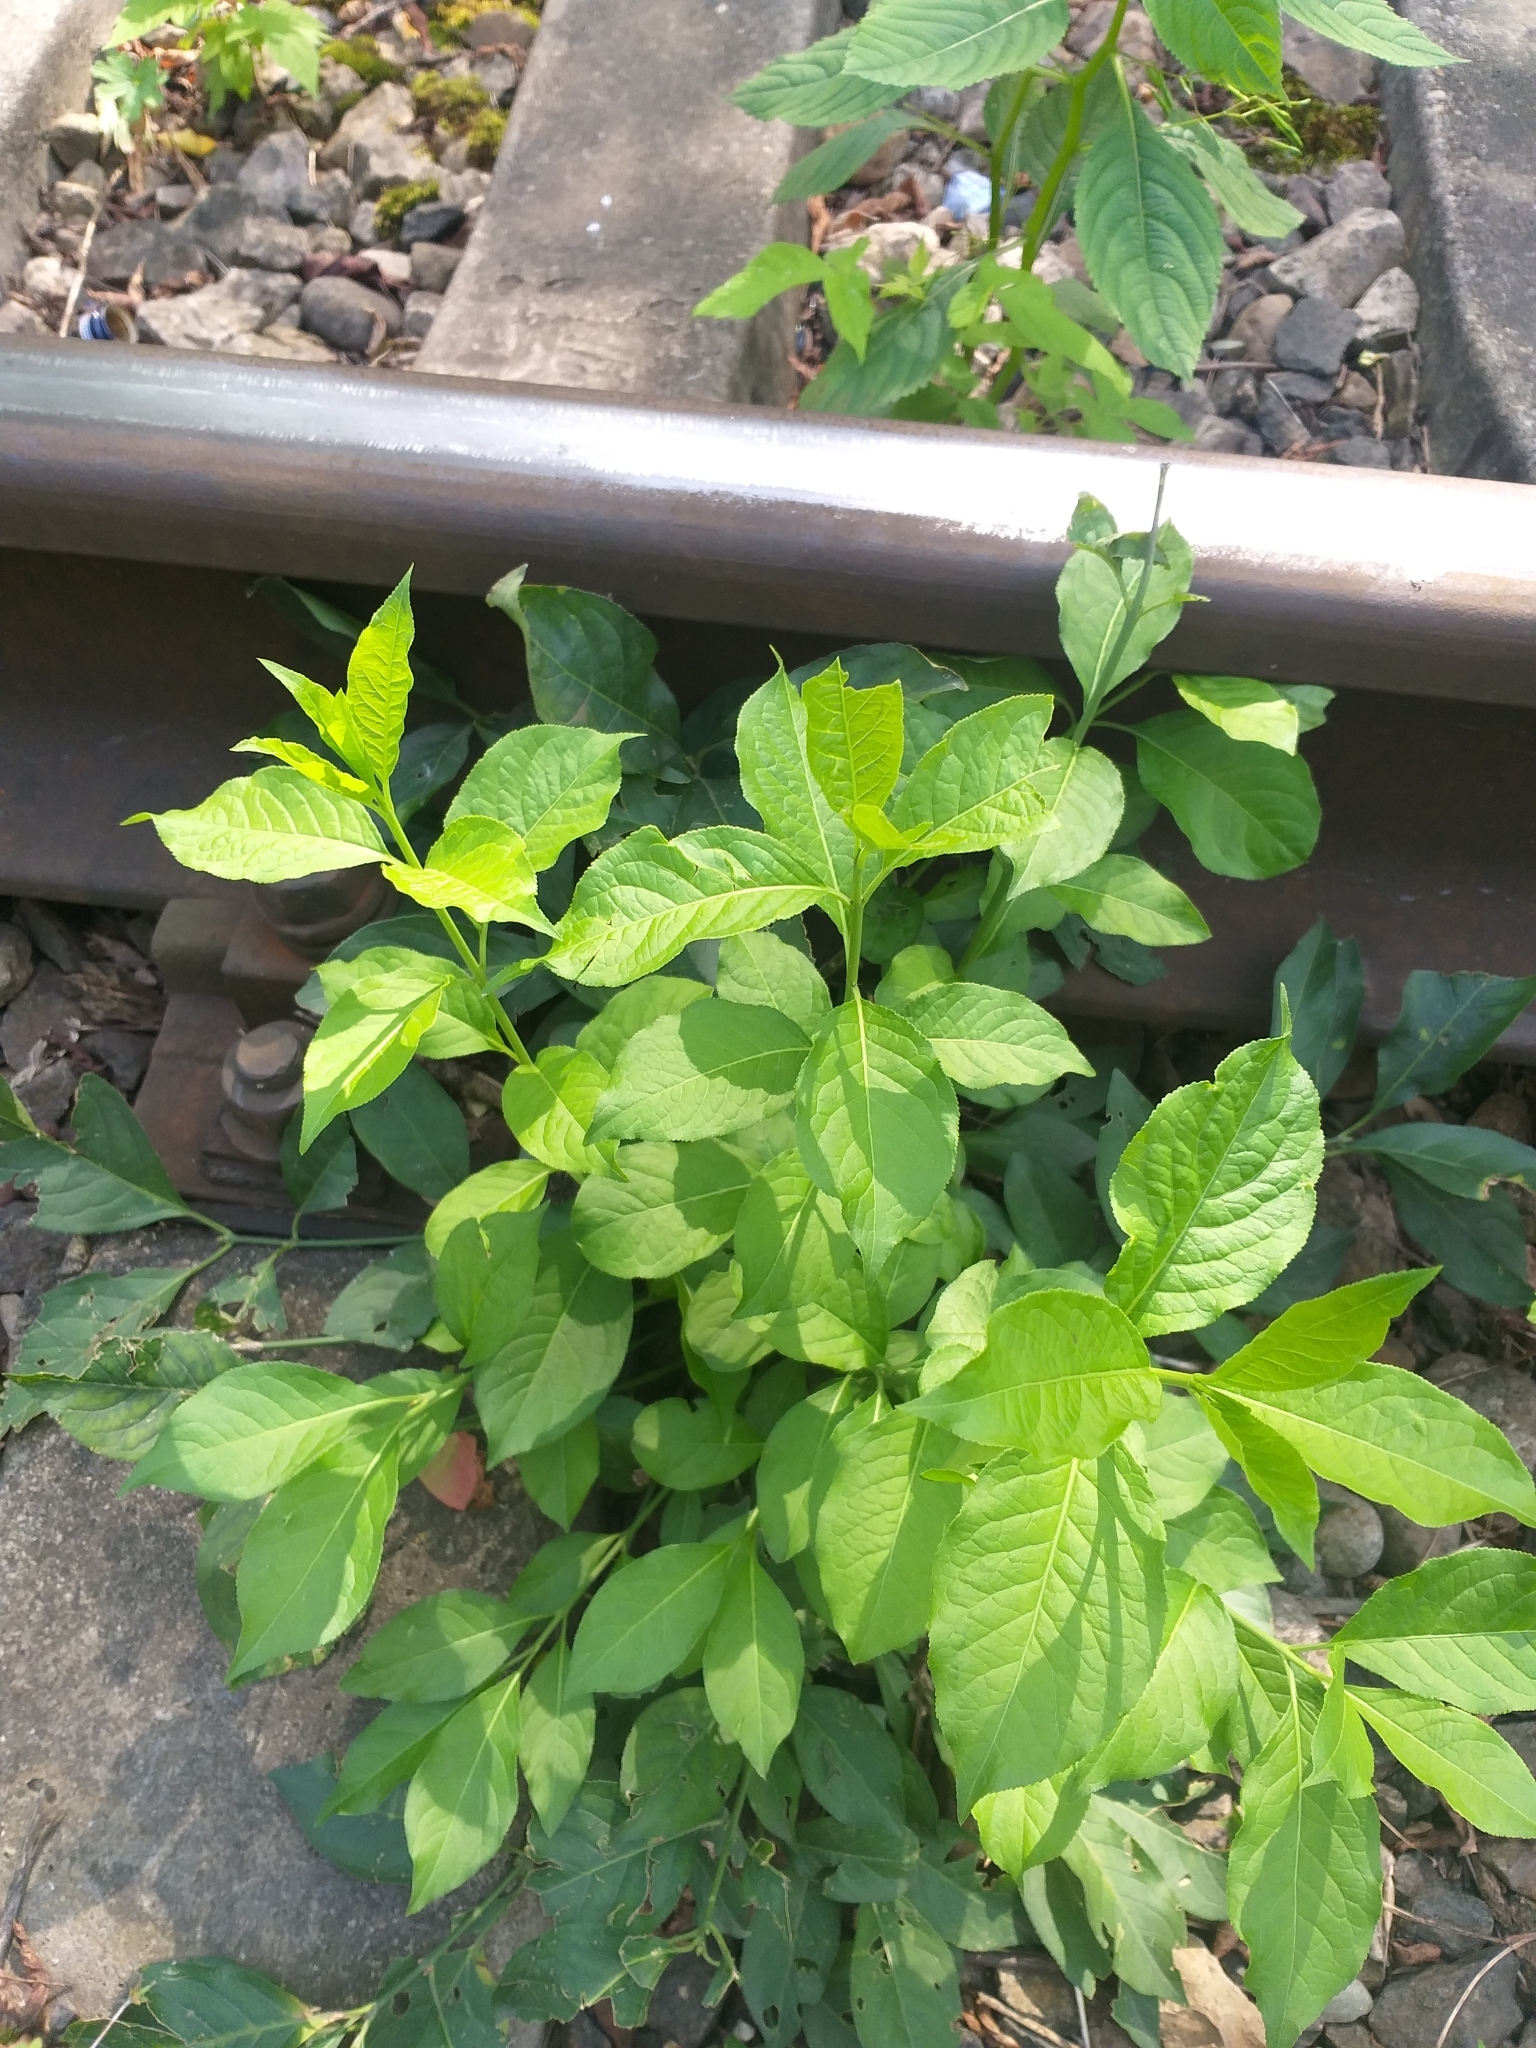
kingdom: Plantae
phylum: Tracheophyta
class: Magnoliopsida
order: Celastrales
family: Celastraceae
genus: Euonymus
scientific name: Euonymus europaeus
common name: Spindle
